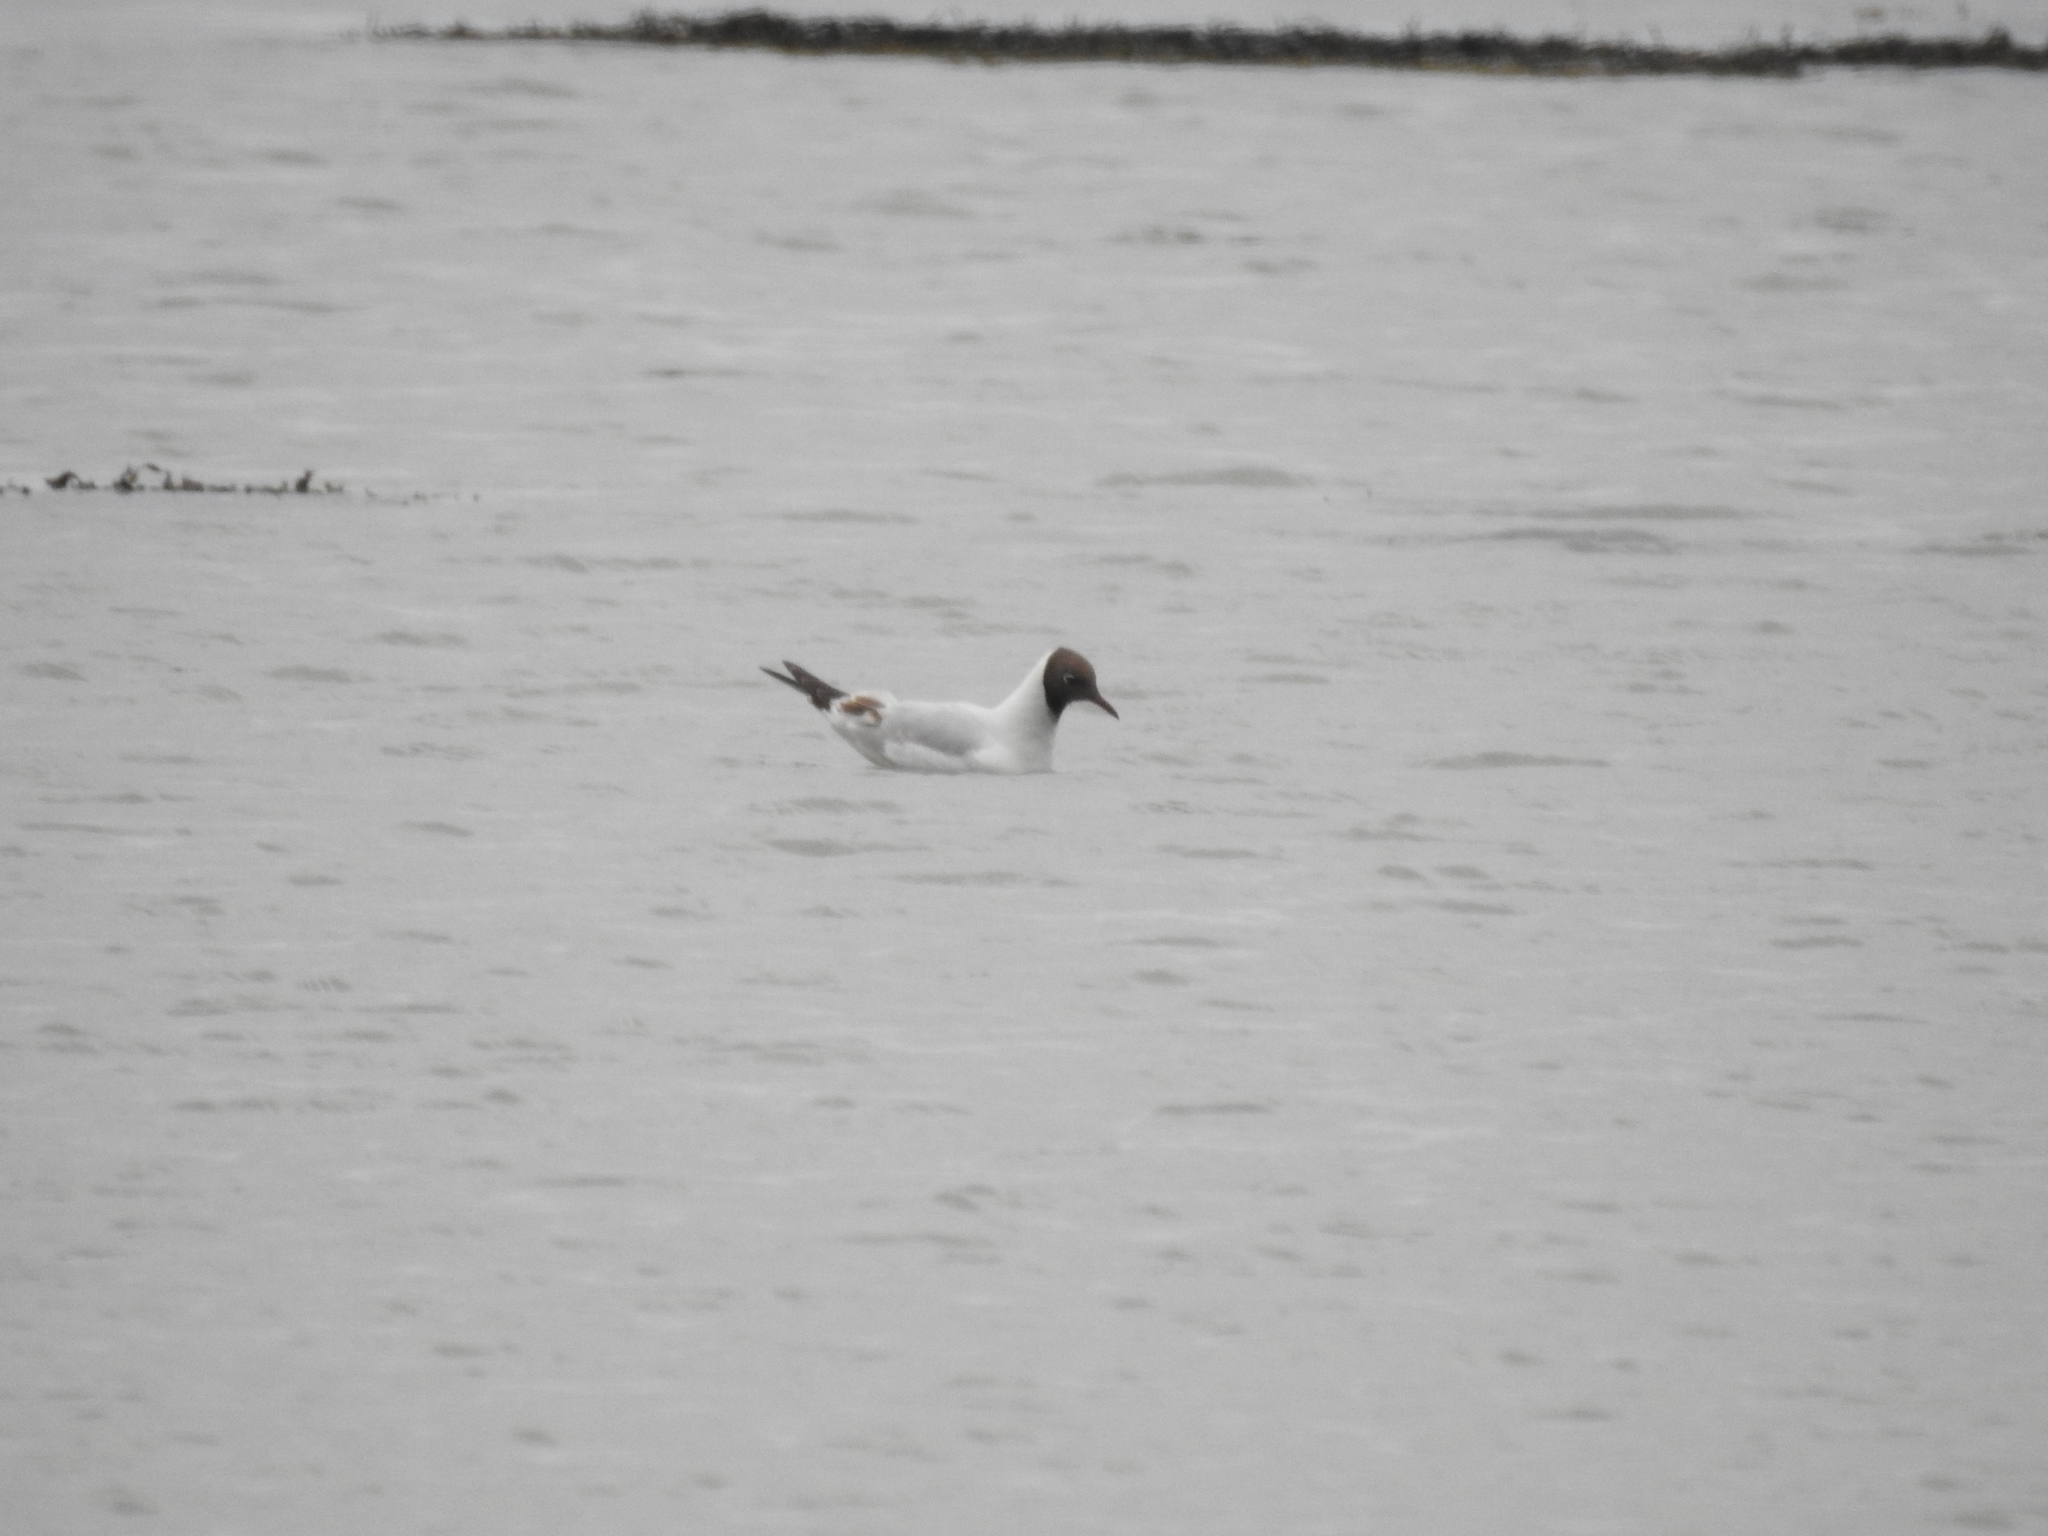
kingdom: Animalia
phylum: Chordata
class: Aves
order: Charadriiformes
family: Laridae
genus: Chroicocephalus
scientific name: Chroicocephalus ridibundus
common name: Black-headed gull
